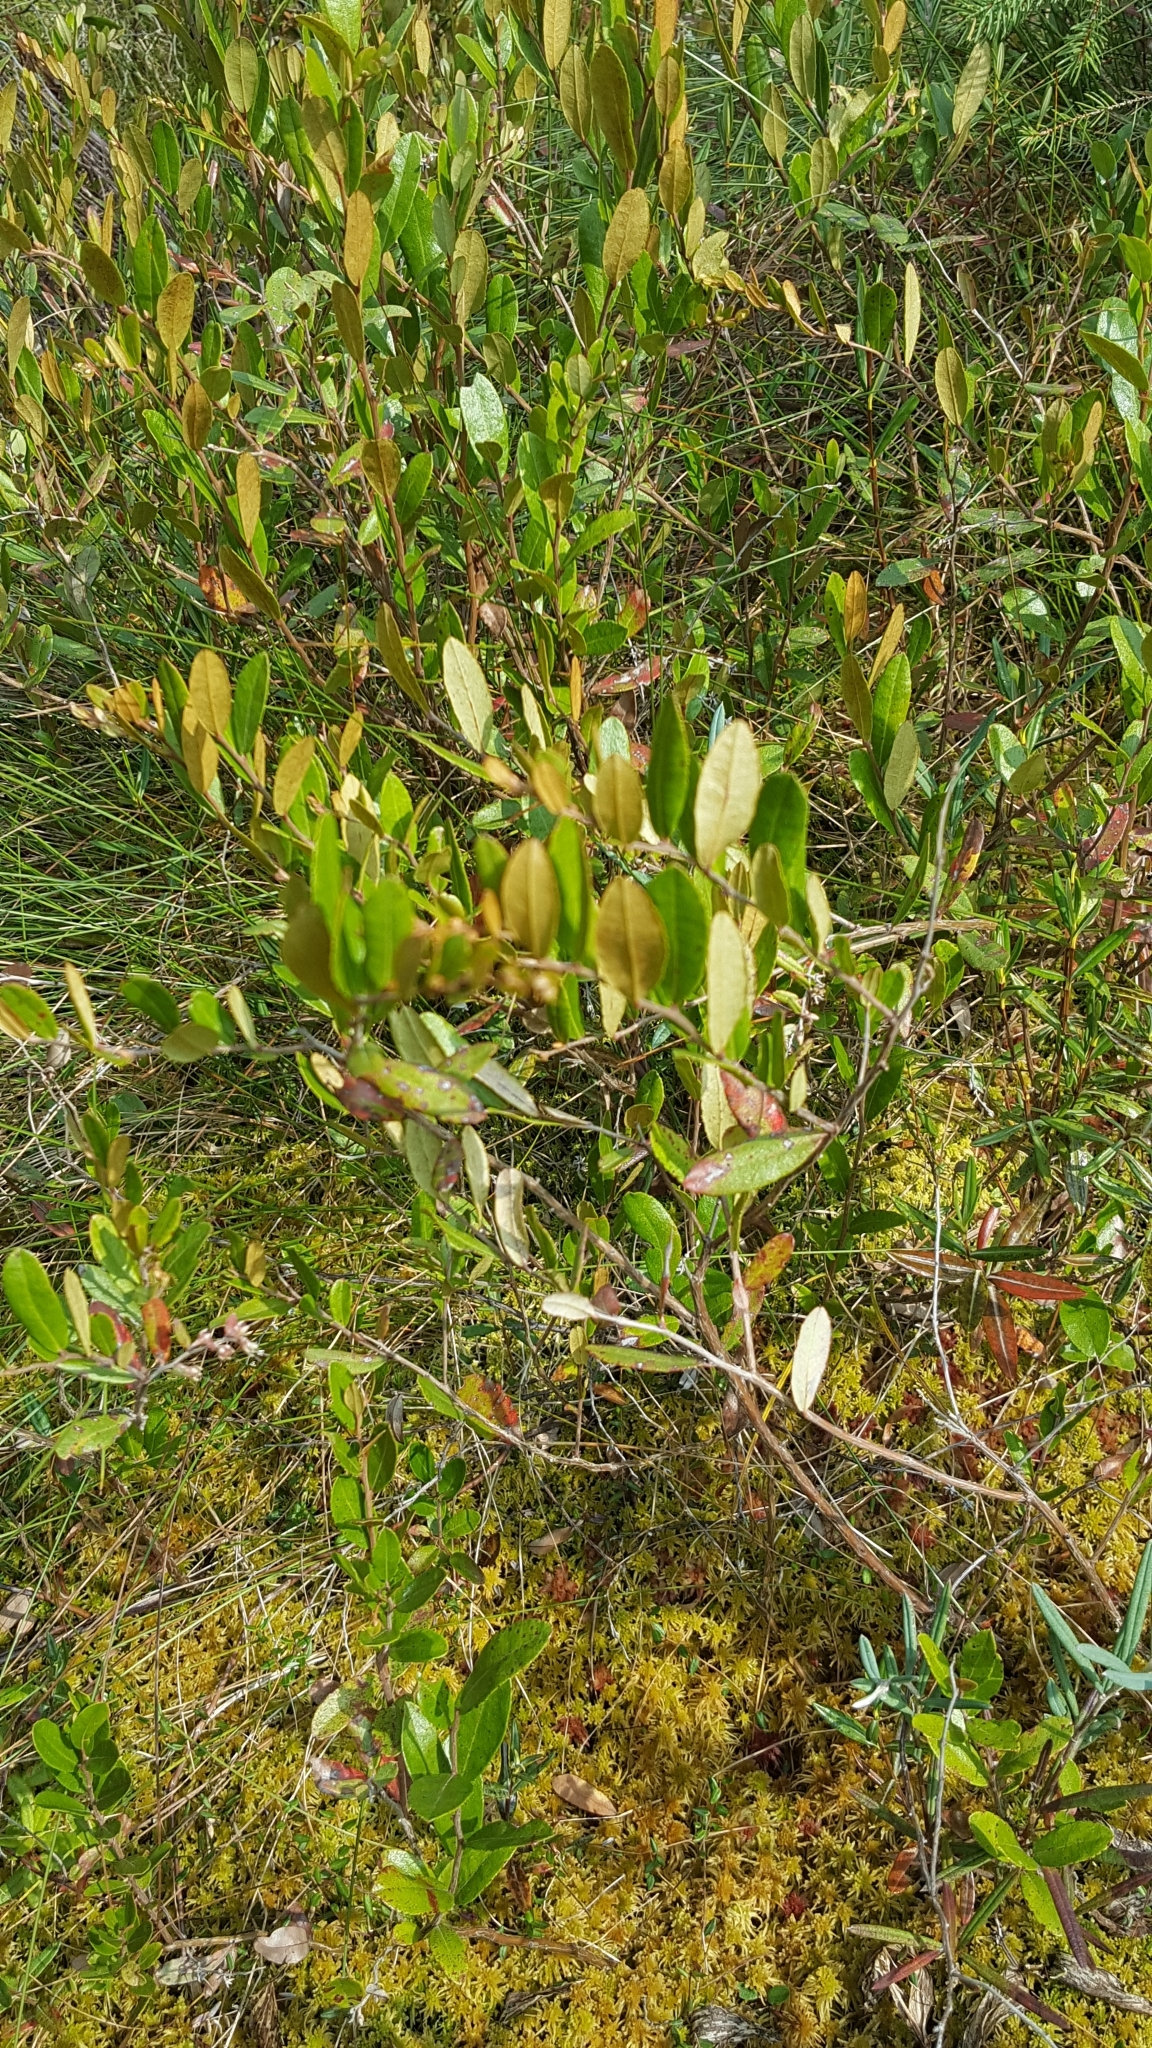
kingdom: Plantae
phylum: Tracheophyta
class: Magnoliopsida
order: Ericales
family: Ericaceae
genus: Chamaedaphne
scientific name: Chamaedaphne calyculata
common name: Leatherleaf
